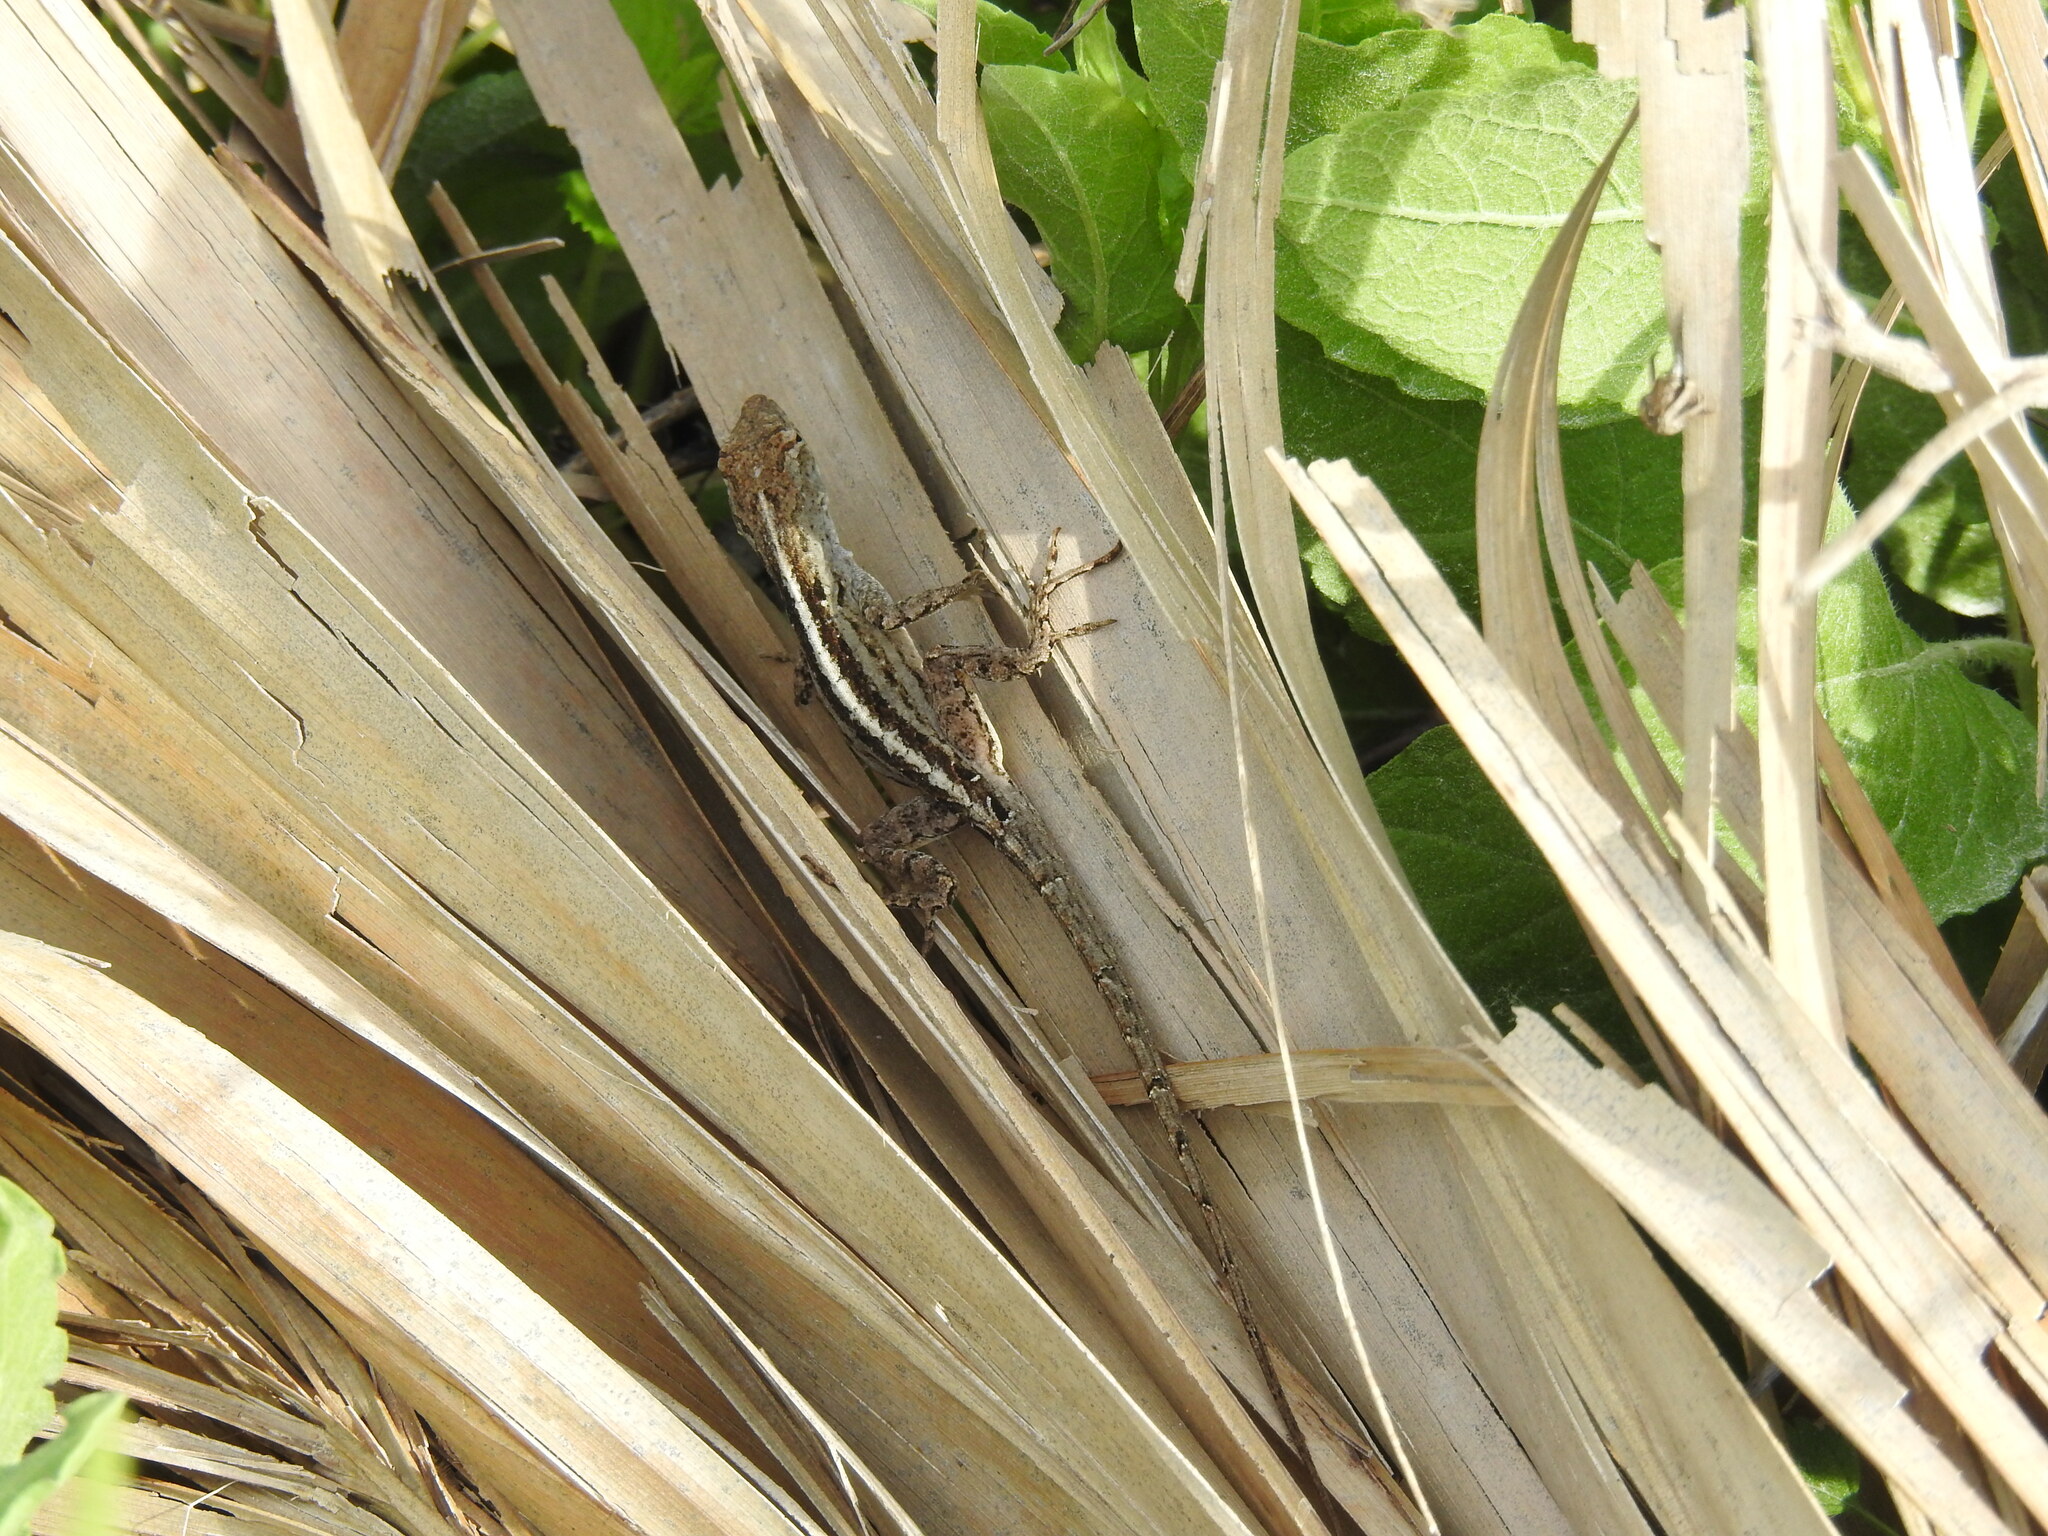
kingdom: Animalia
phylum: Chordata
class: Squamata
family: Dactyloidae
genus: Anolis
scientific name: Anolis sagrei
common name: Brown anole
